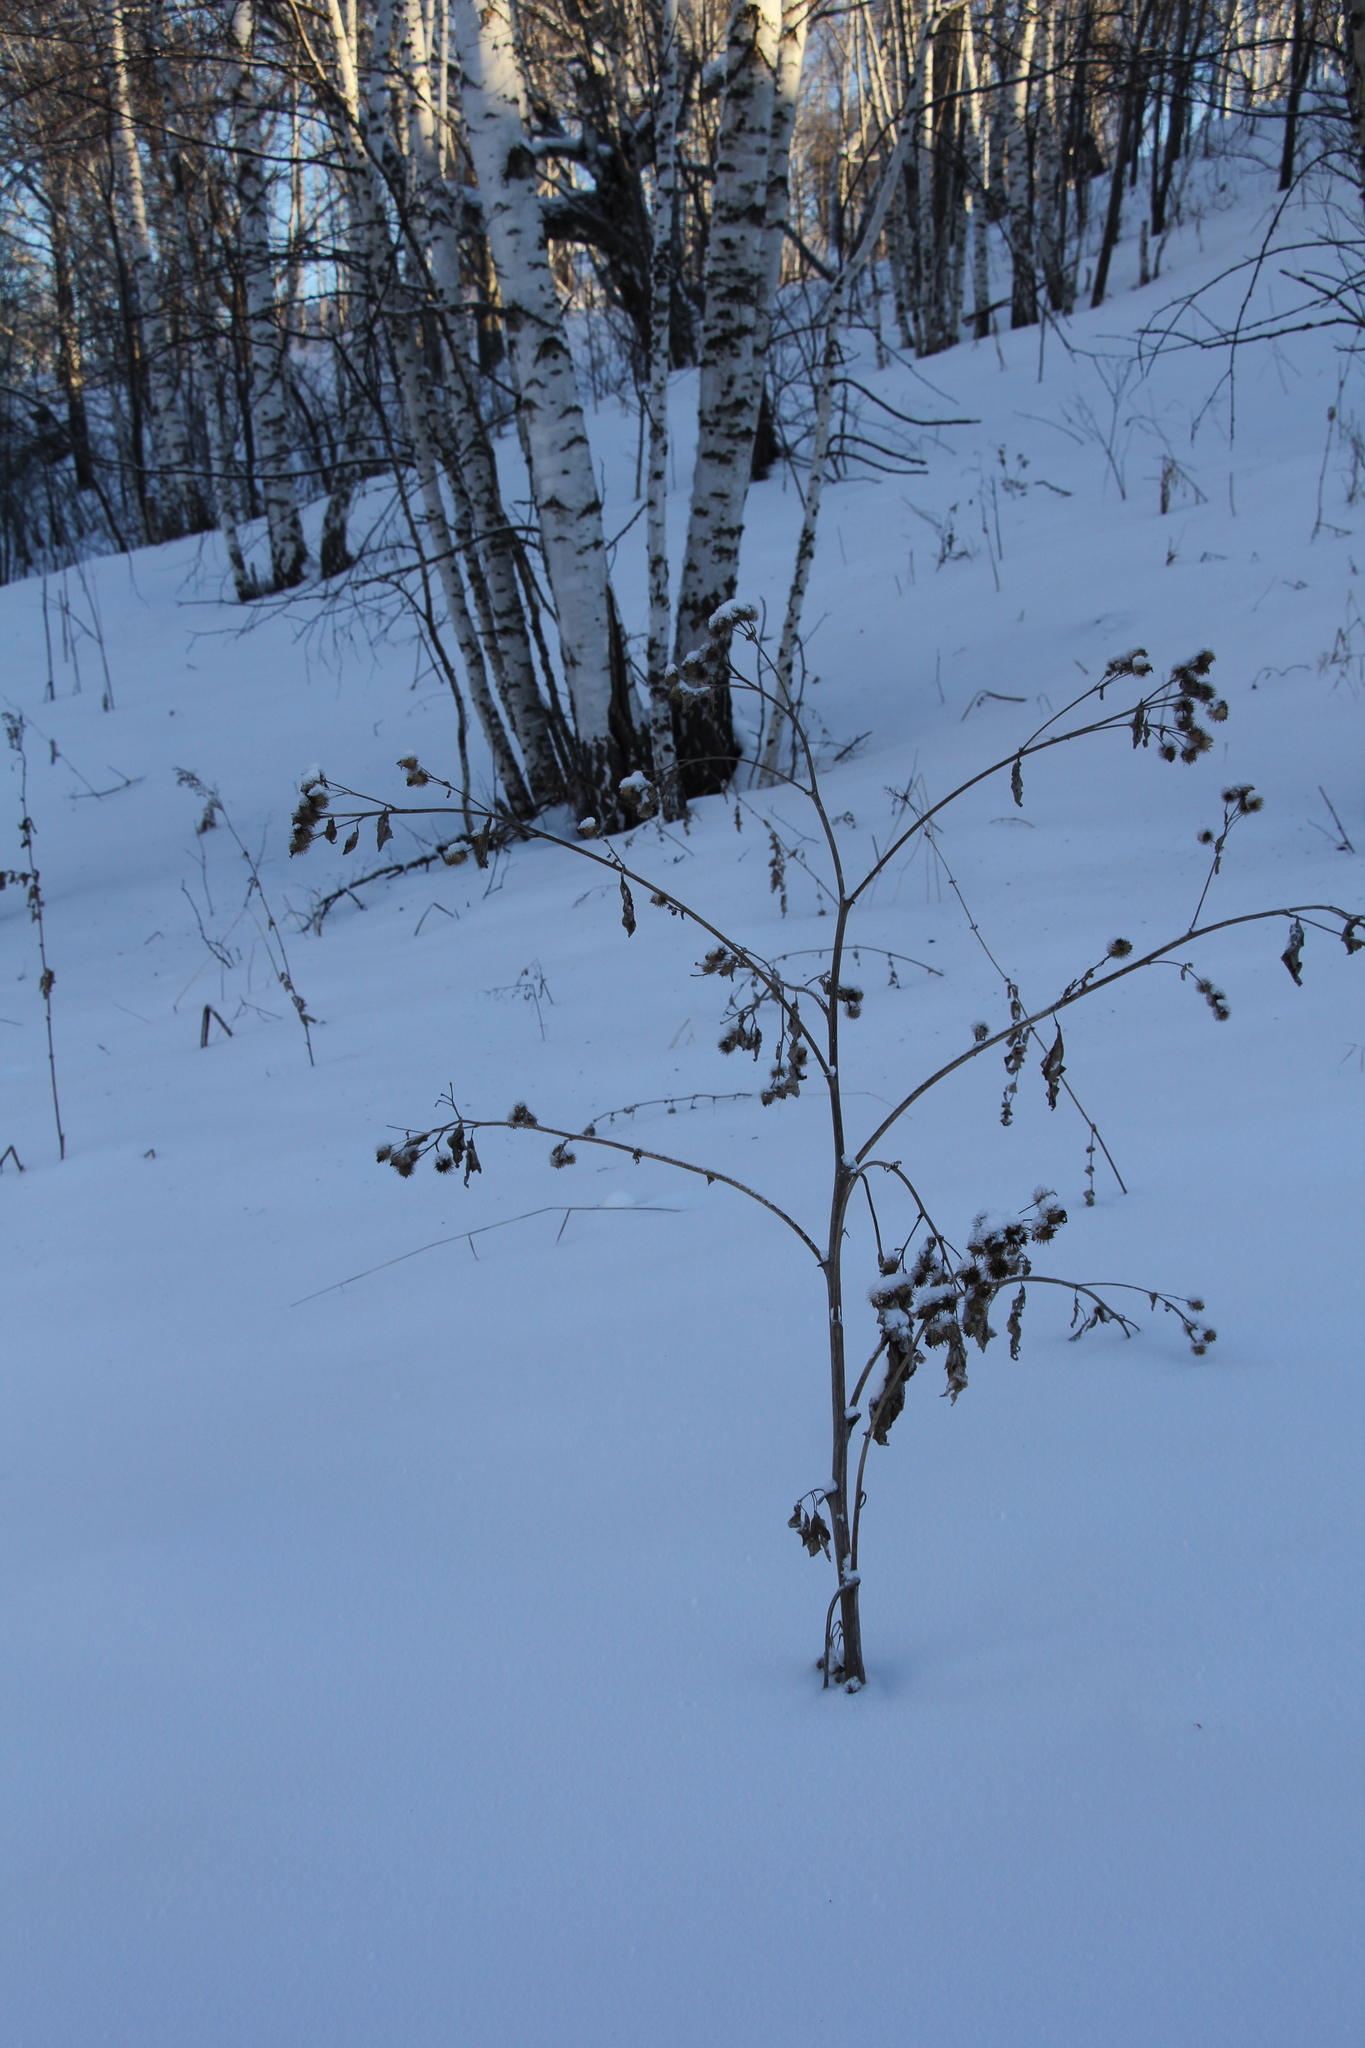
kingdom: Plantae
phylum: Tracheophyta
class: Magnoliopsida
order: Asterales
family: Asteraceae
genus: Arctium
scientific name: Arctium tomentosum
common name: Woolly burdock
